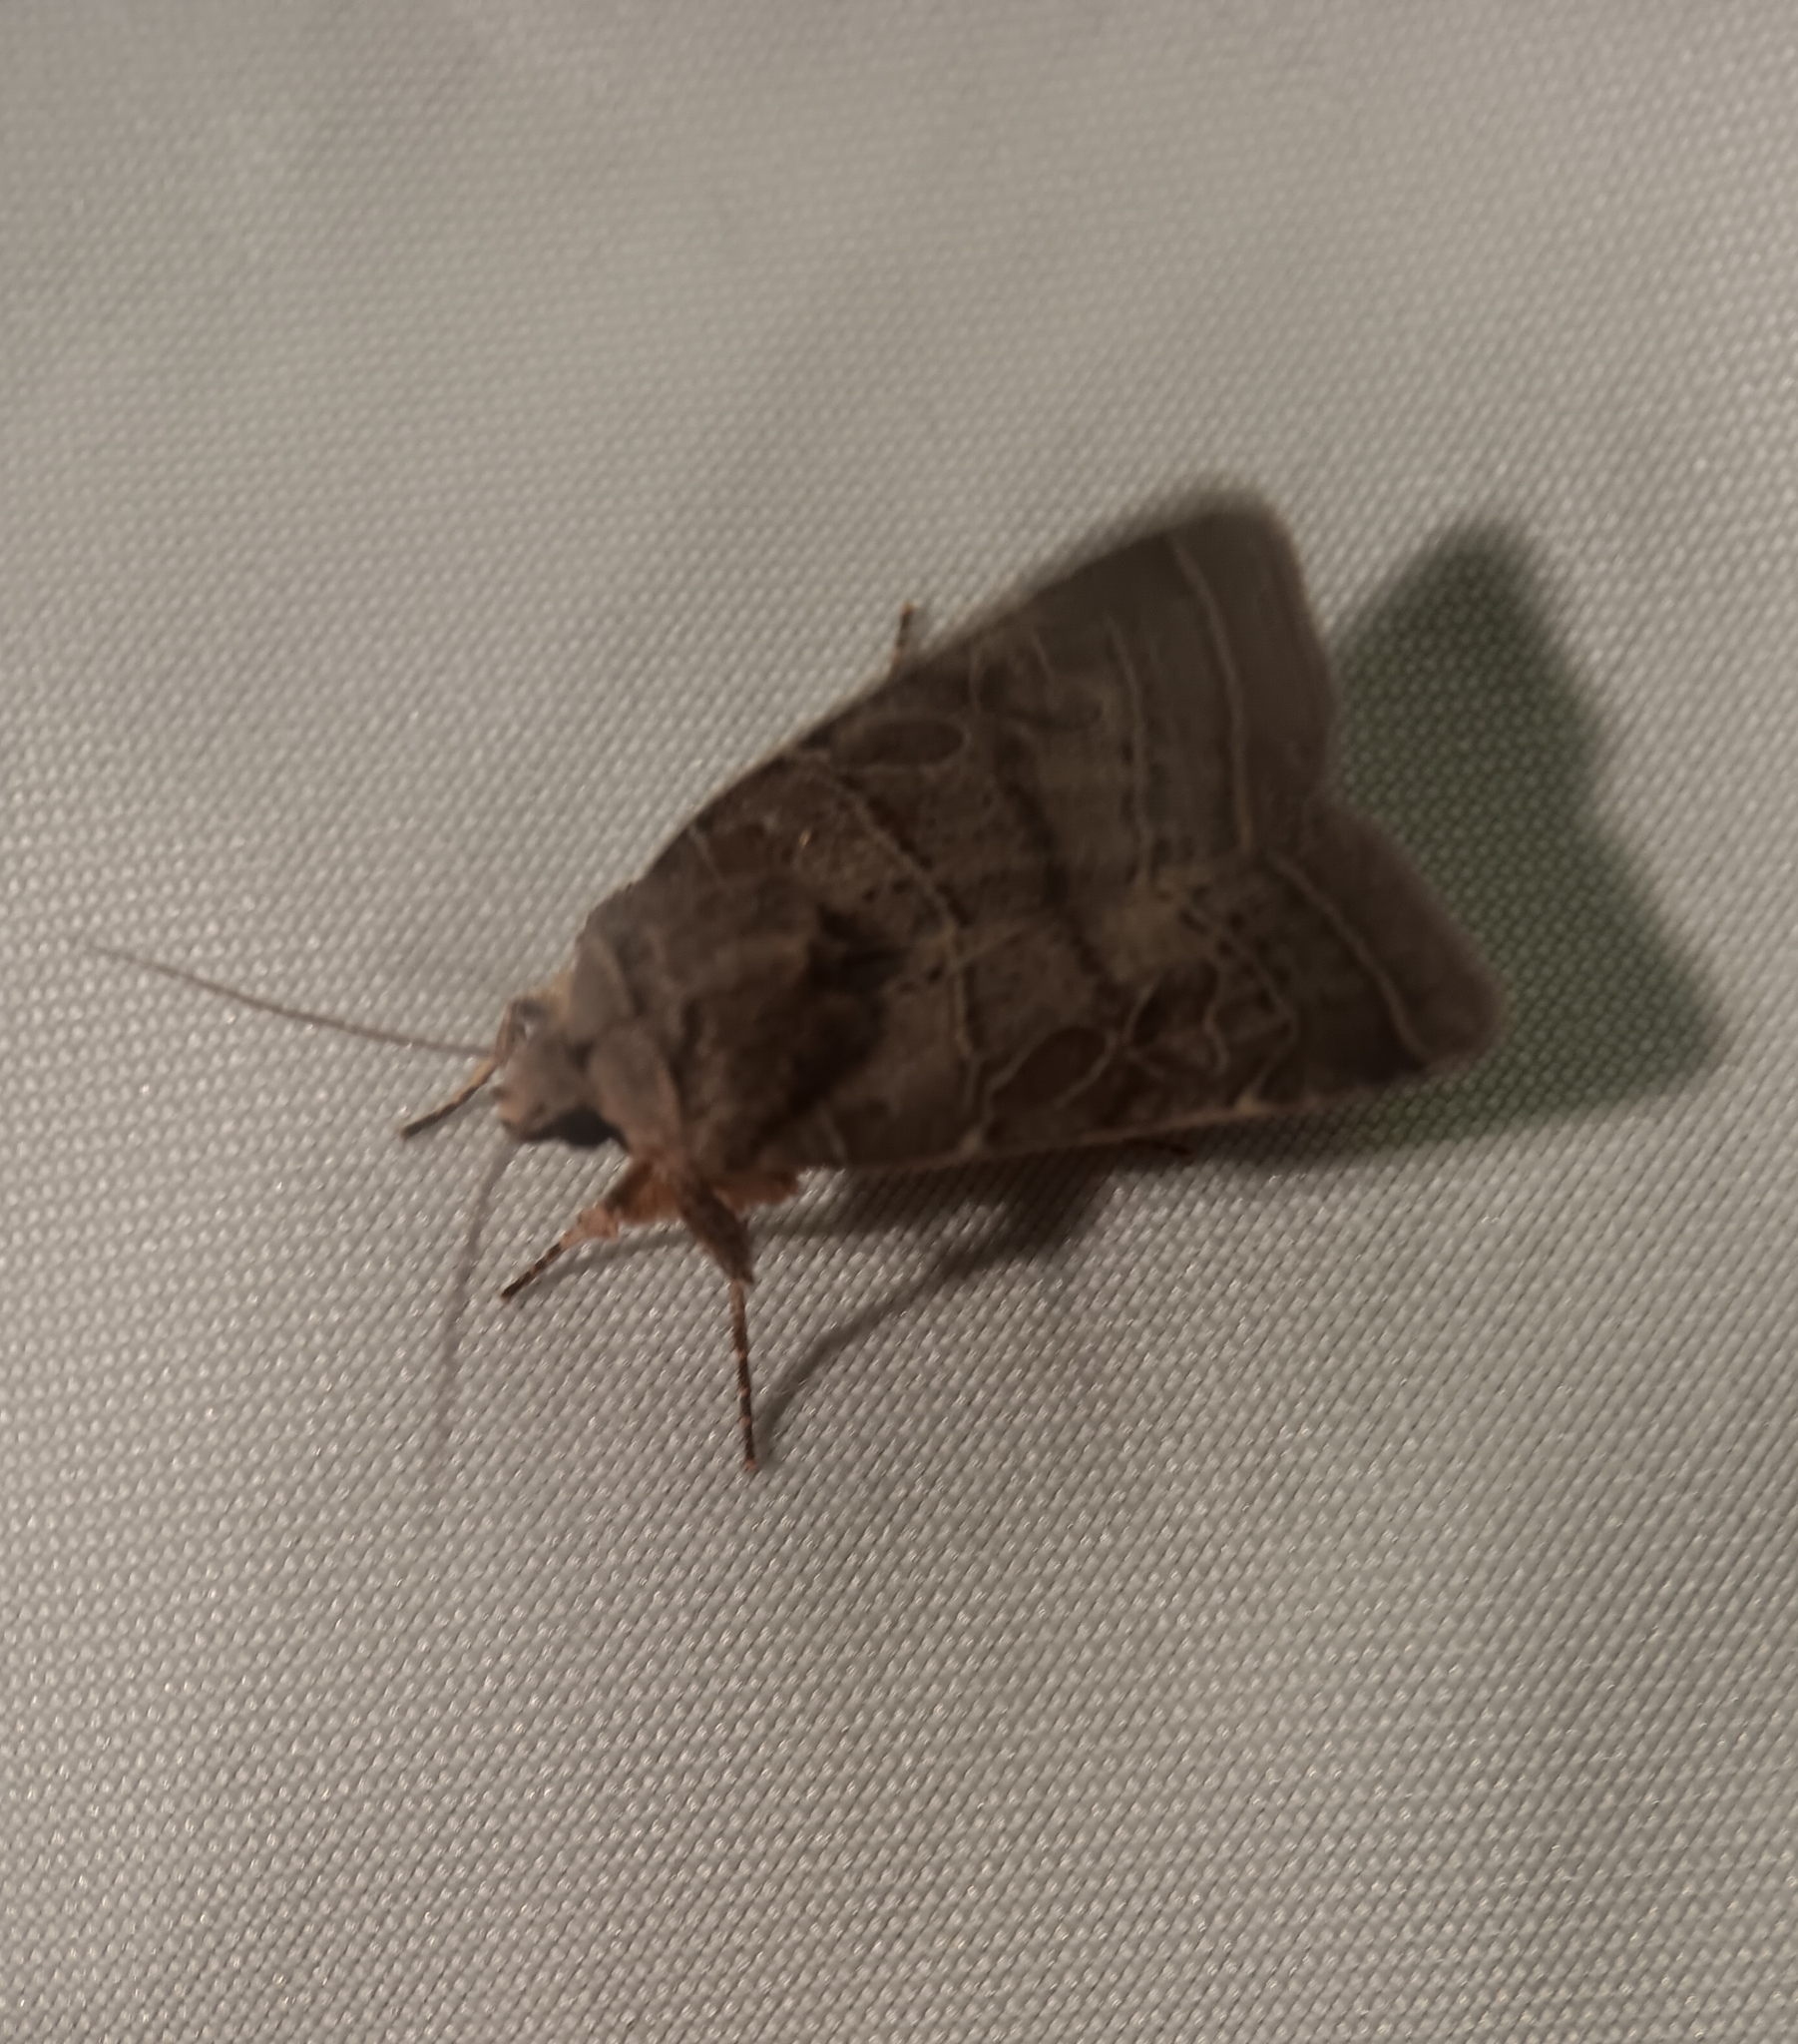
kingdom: Animalia
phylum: Arthropoda
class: Insecta
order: Lepidoptera
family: Noctuidae
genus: Orthodes
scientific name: Orthodes majuscula
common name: Rustic quaker
